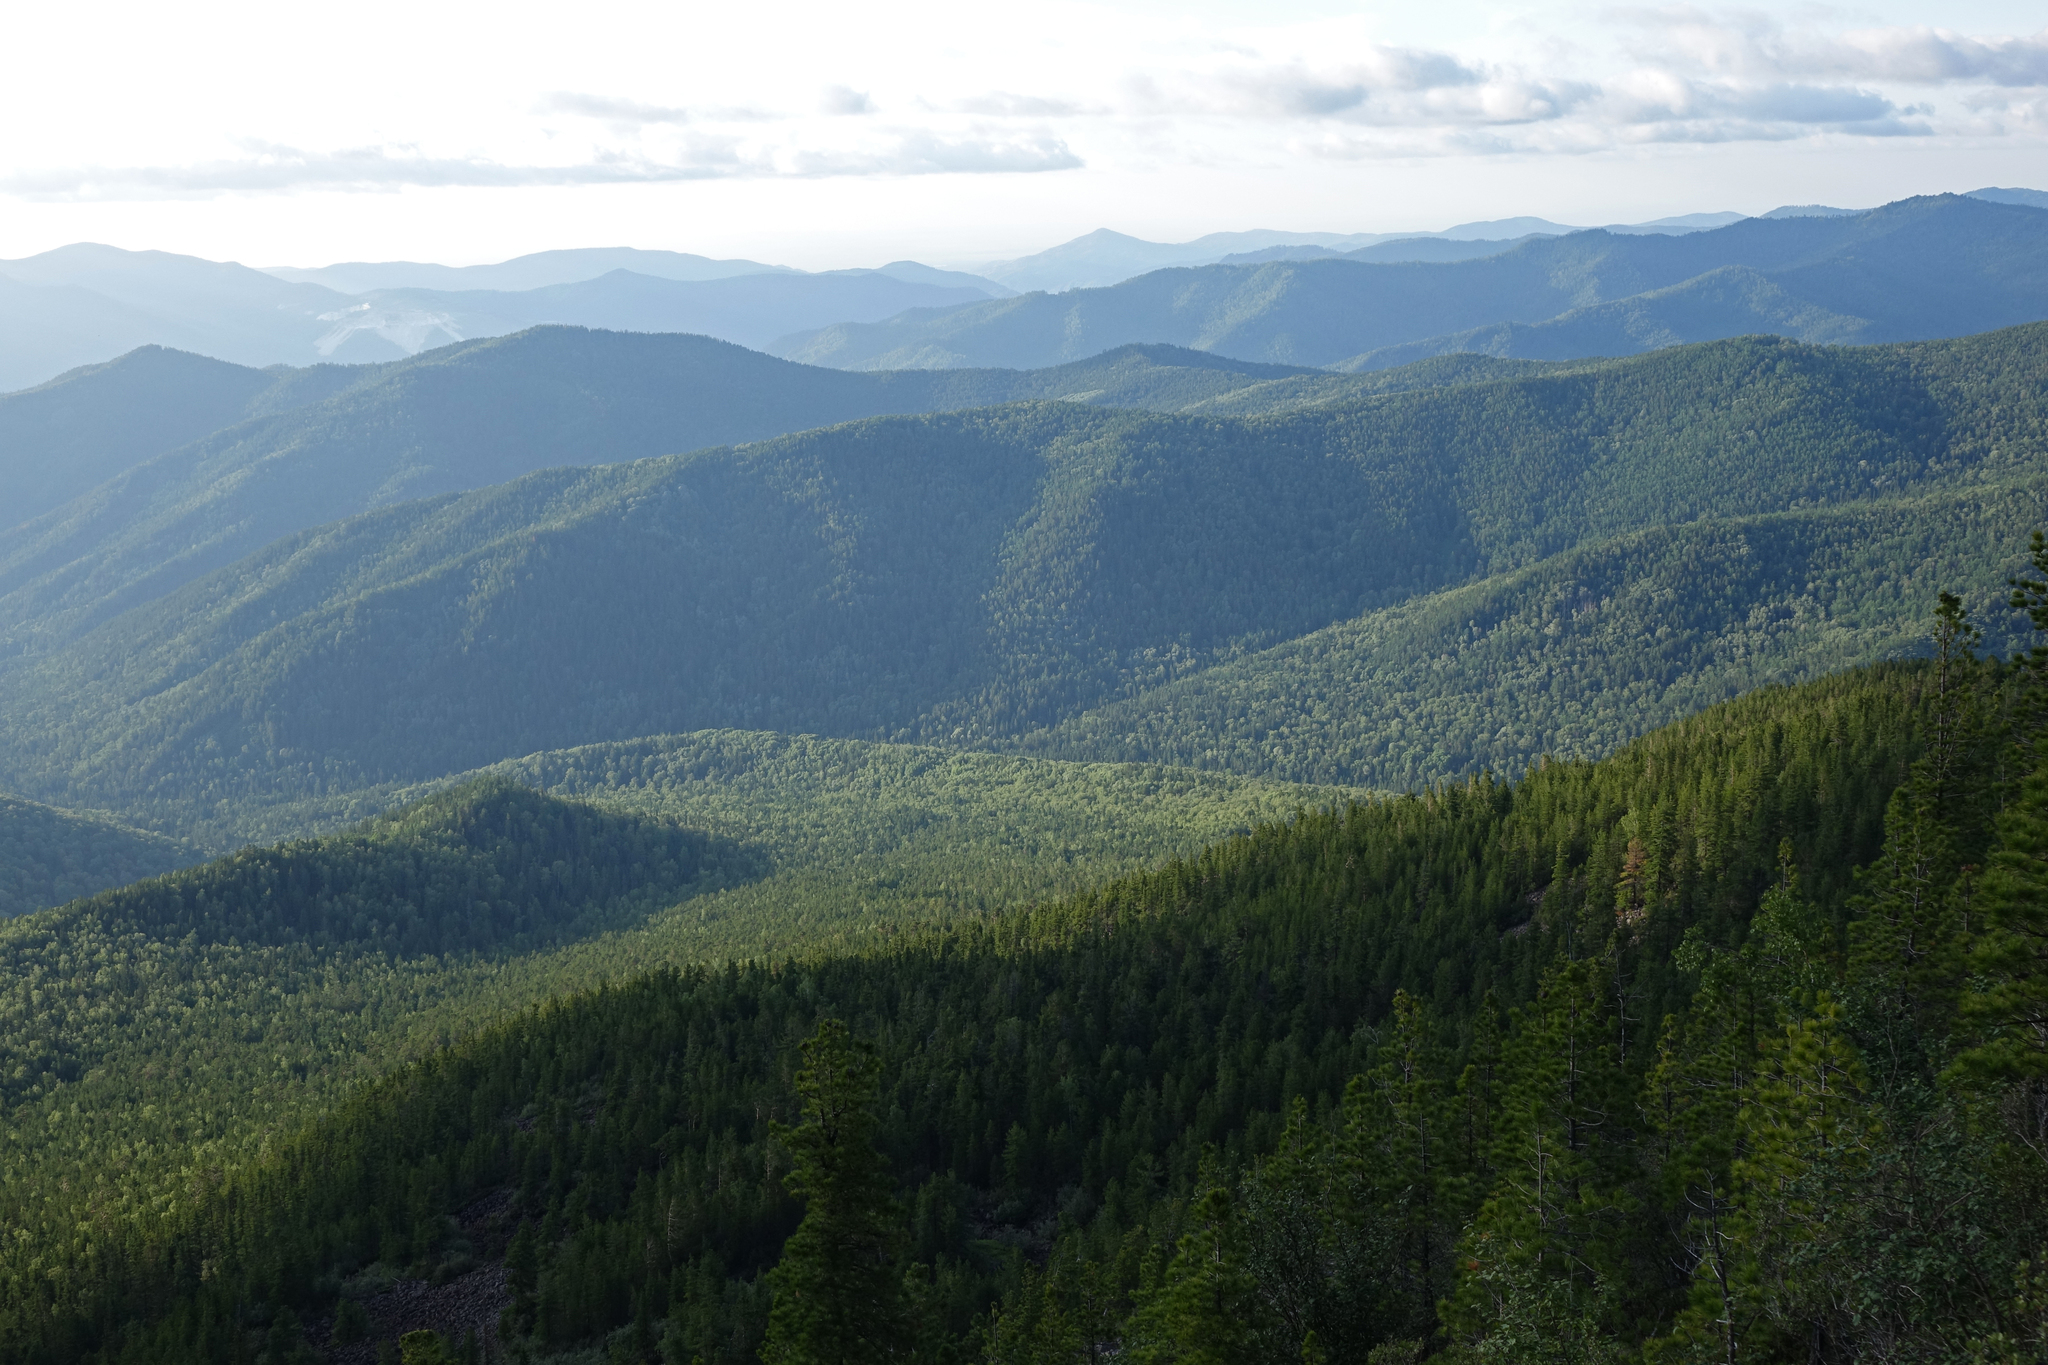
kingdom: Plantae
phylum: Tracheophyta
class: Pinopsida
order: Pinales
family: Pinaceae
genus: Pinus
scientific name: Pinus sibirica
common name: Siberian pine
